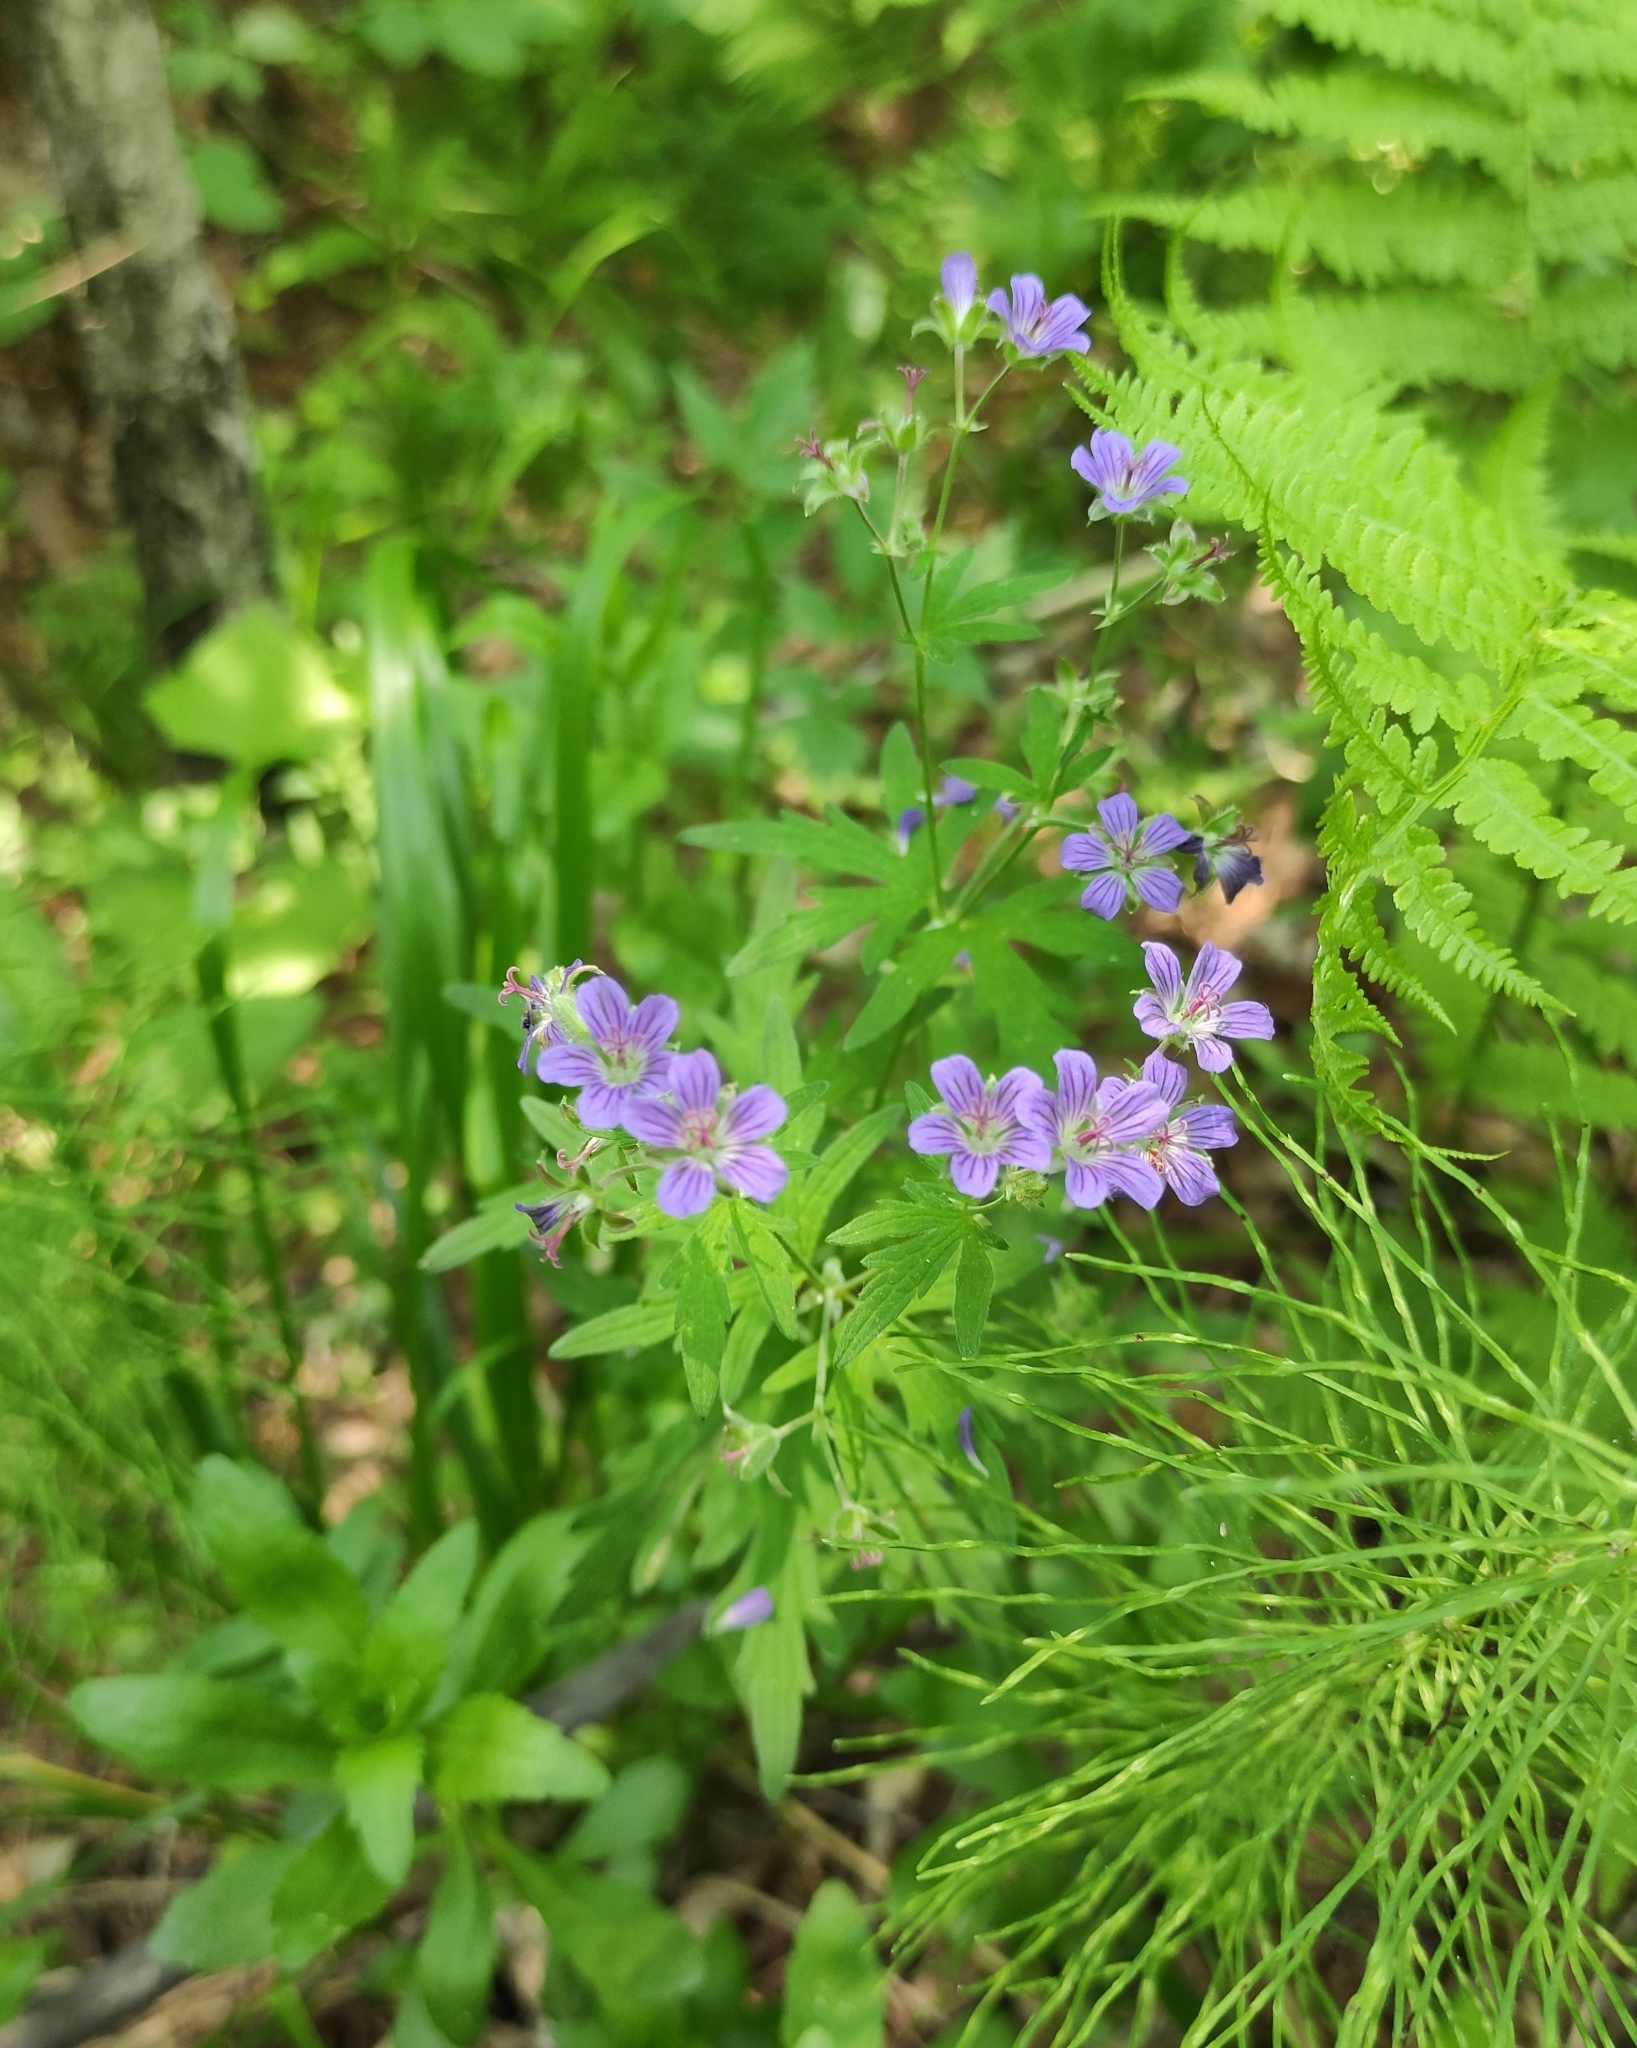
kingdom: Plantae
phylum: Tracheophyta
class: Magnoliopsida
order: Geraniales
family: Geraniaceae
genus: Geranium
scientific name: Geranium pseudosibiricum
